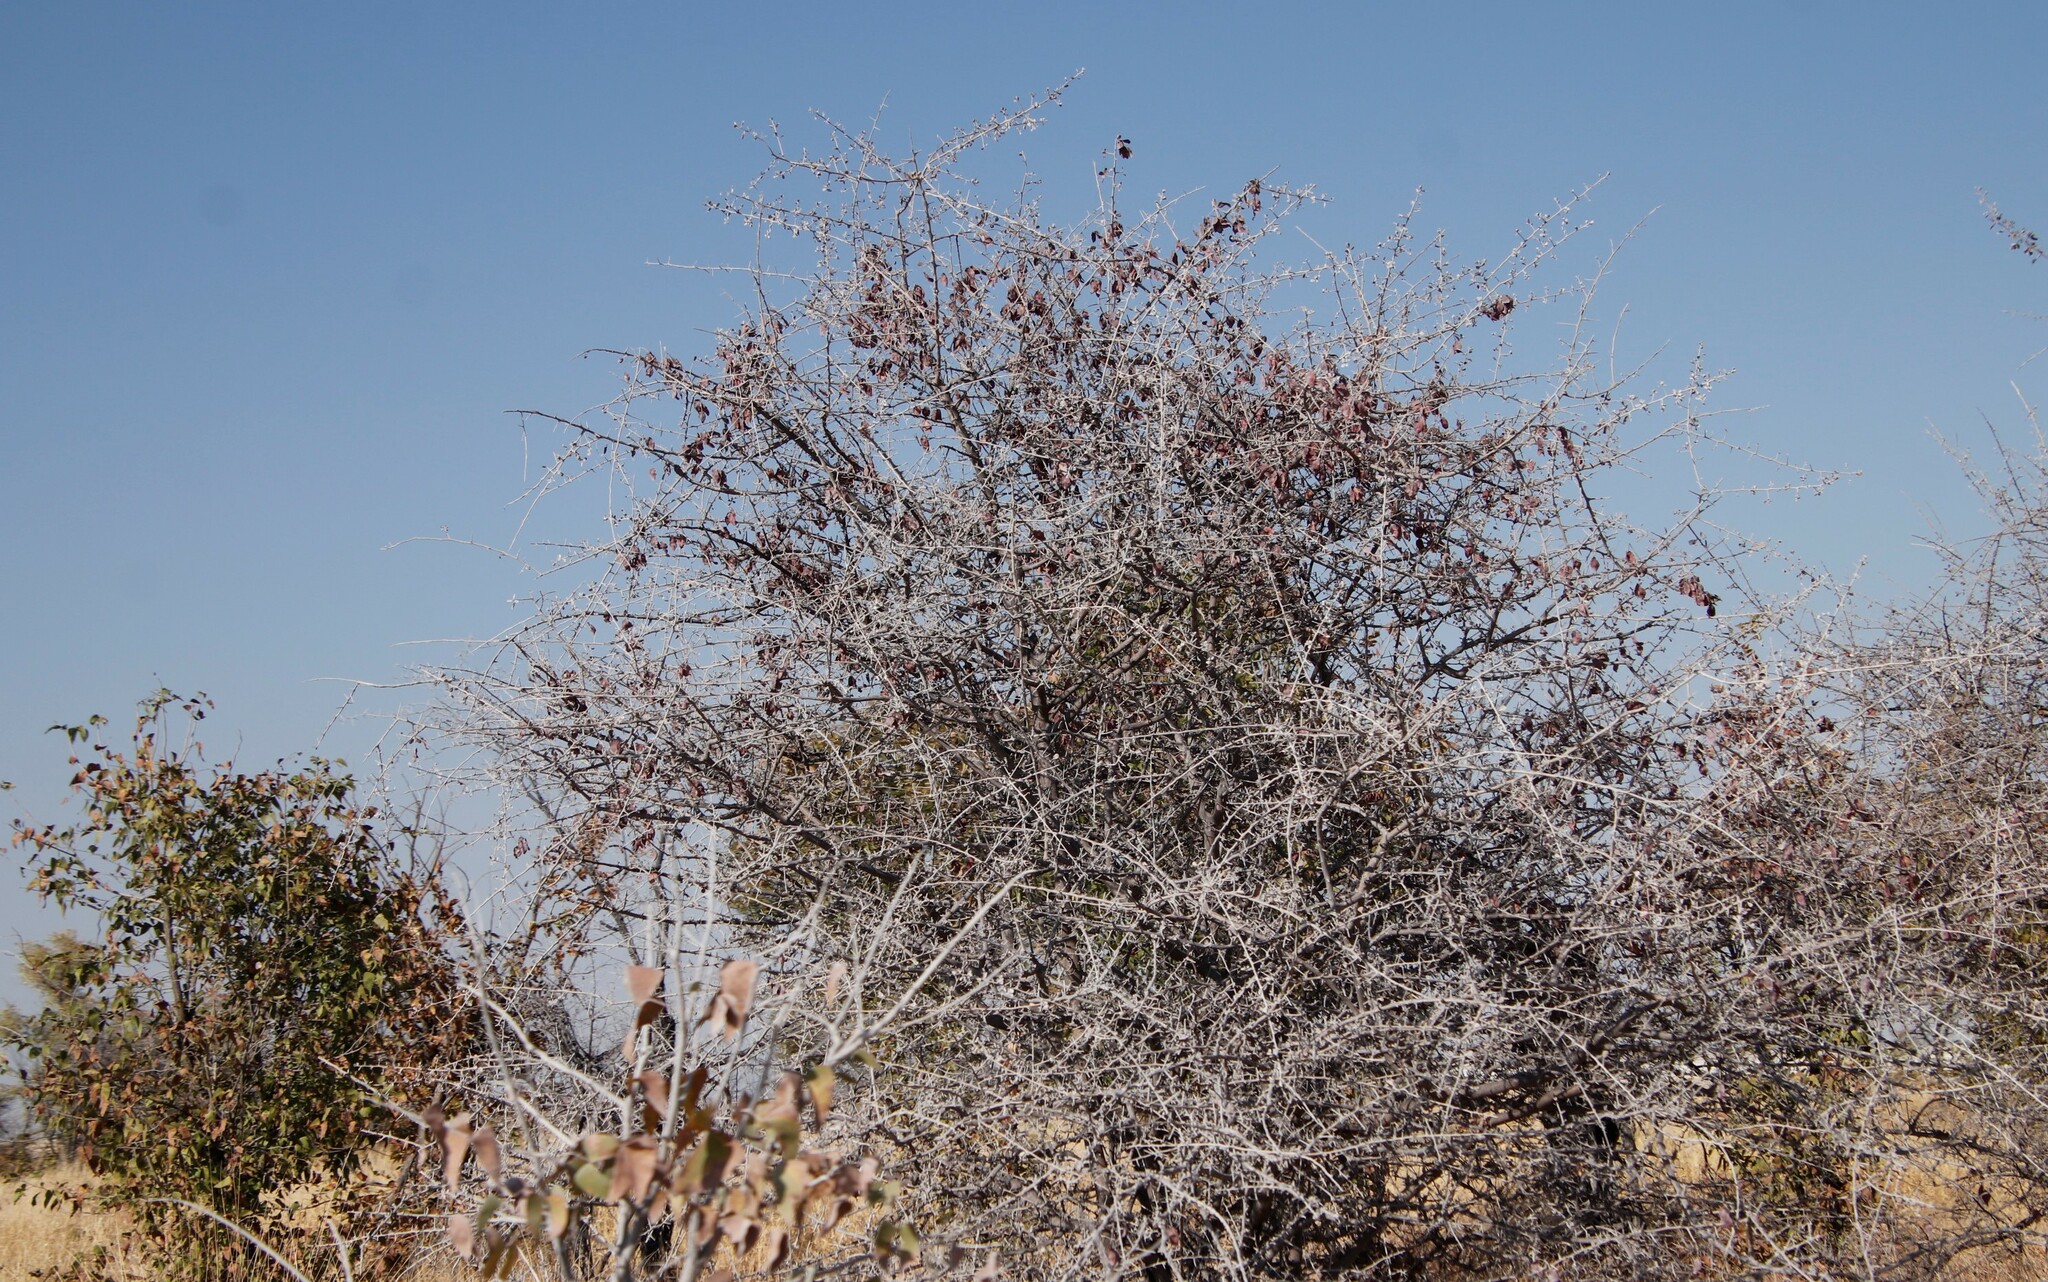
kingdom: Plantae
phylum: Tracheophyta
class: Magnoliopsida
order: Myrtales
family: Combretaceae
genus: Terminalia
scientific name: Terminalia prunioides
